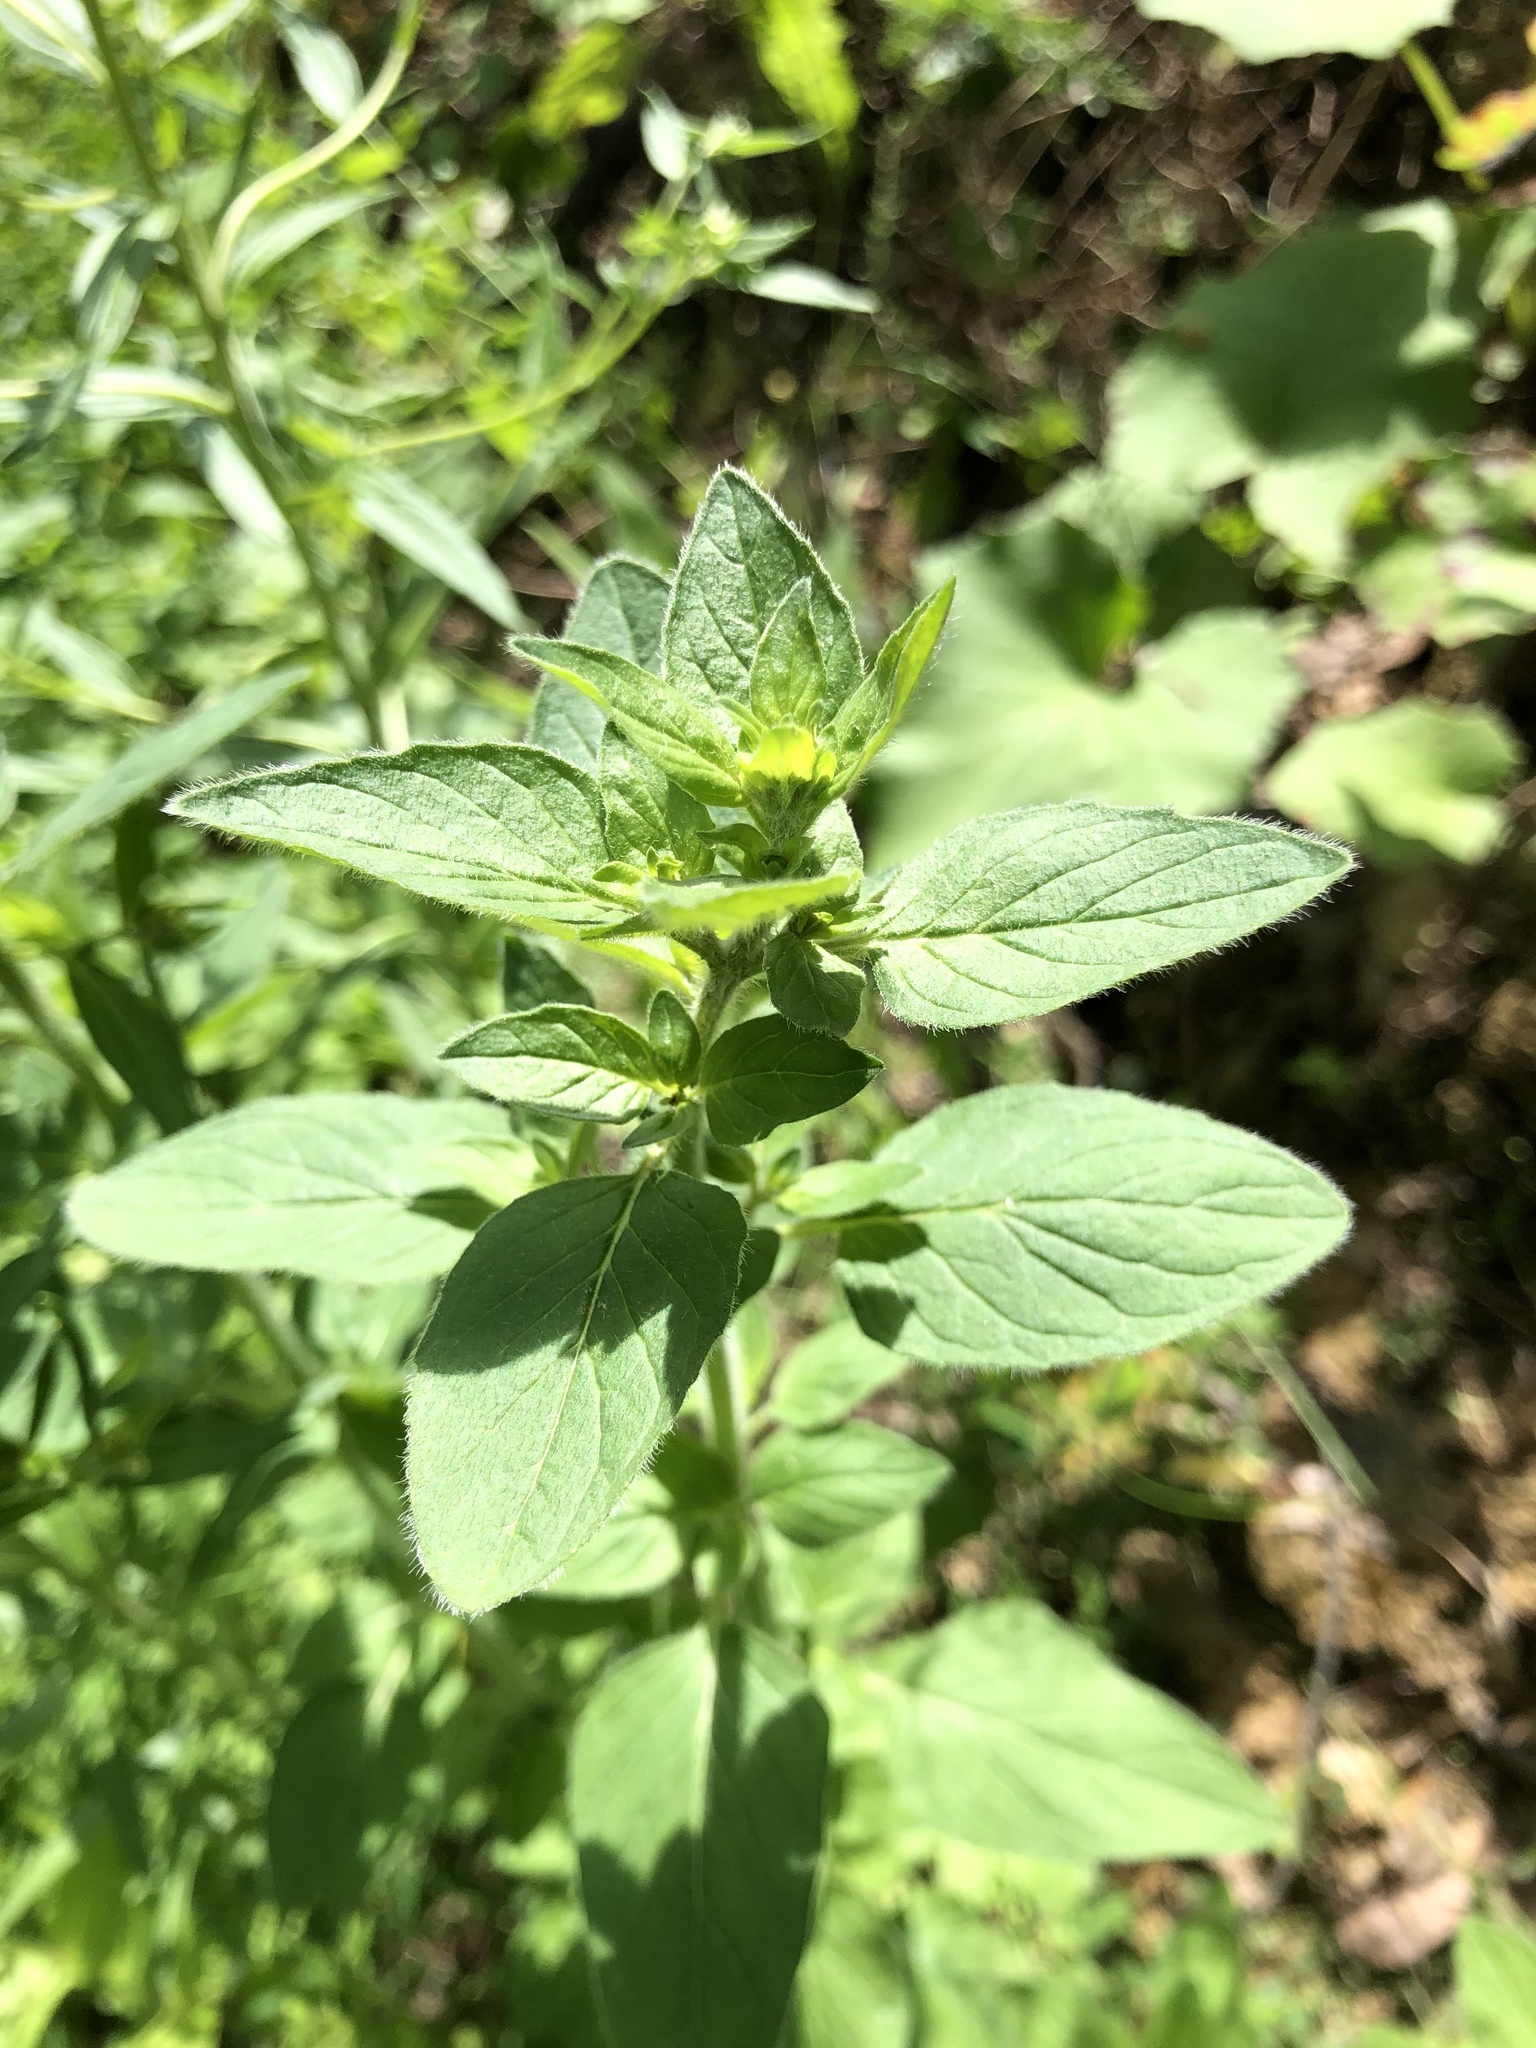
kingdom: Plantae
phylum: Tracheophyta
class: Magnoliopsida
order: Lamiales
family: Lamiaceae
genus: Origanum
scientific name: Origanum vulgare
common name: Wild marjoram
